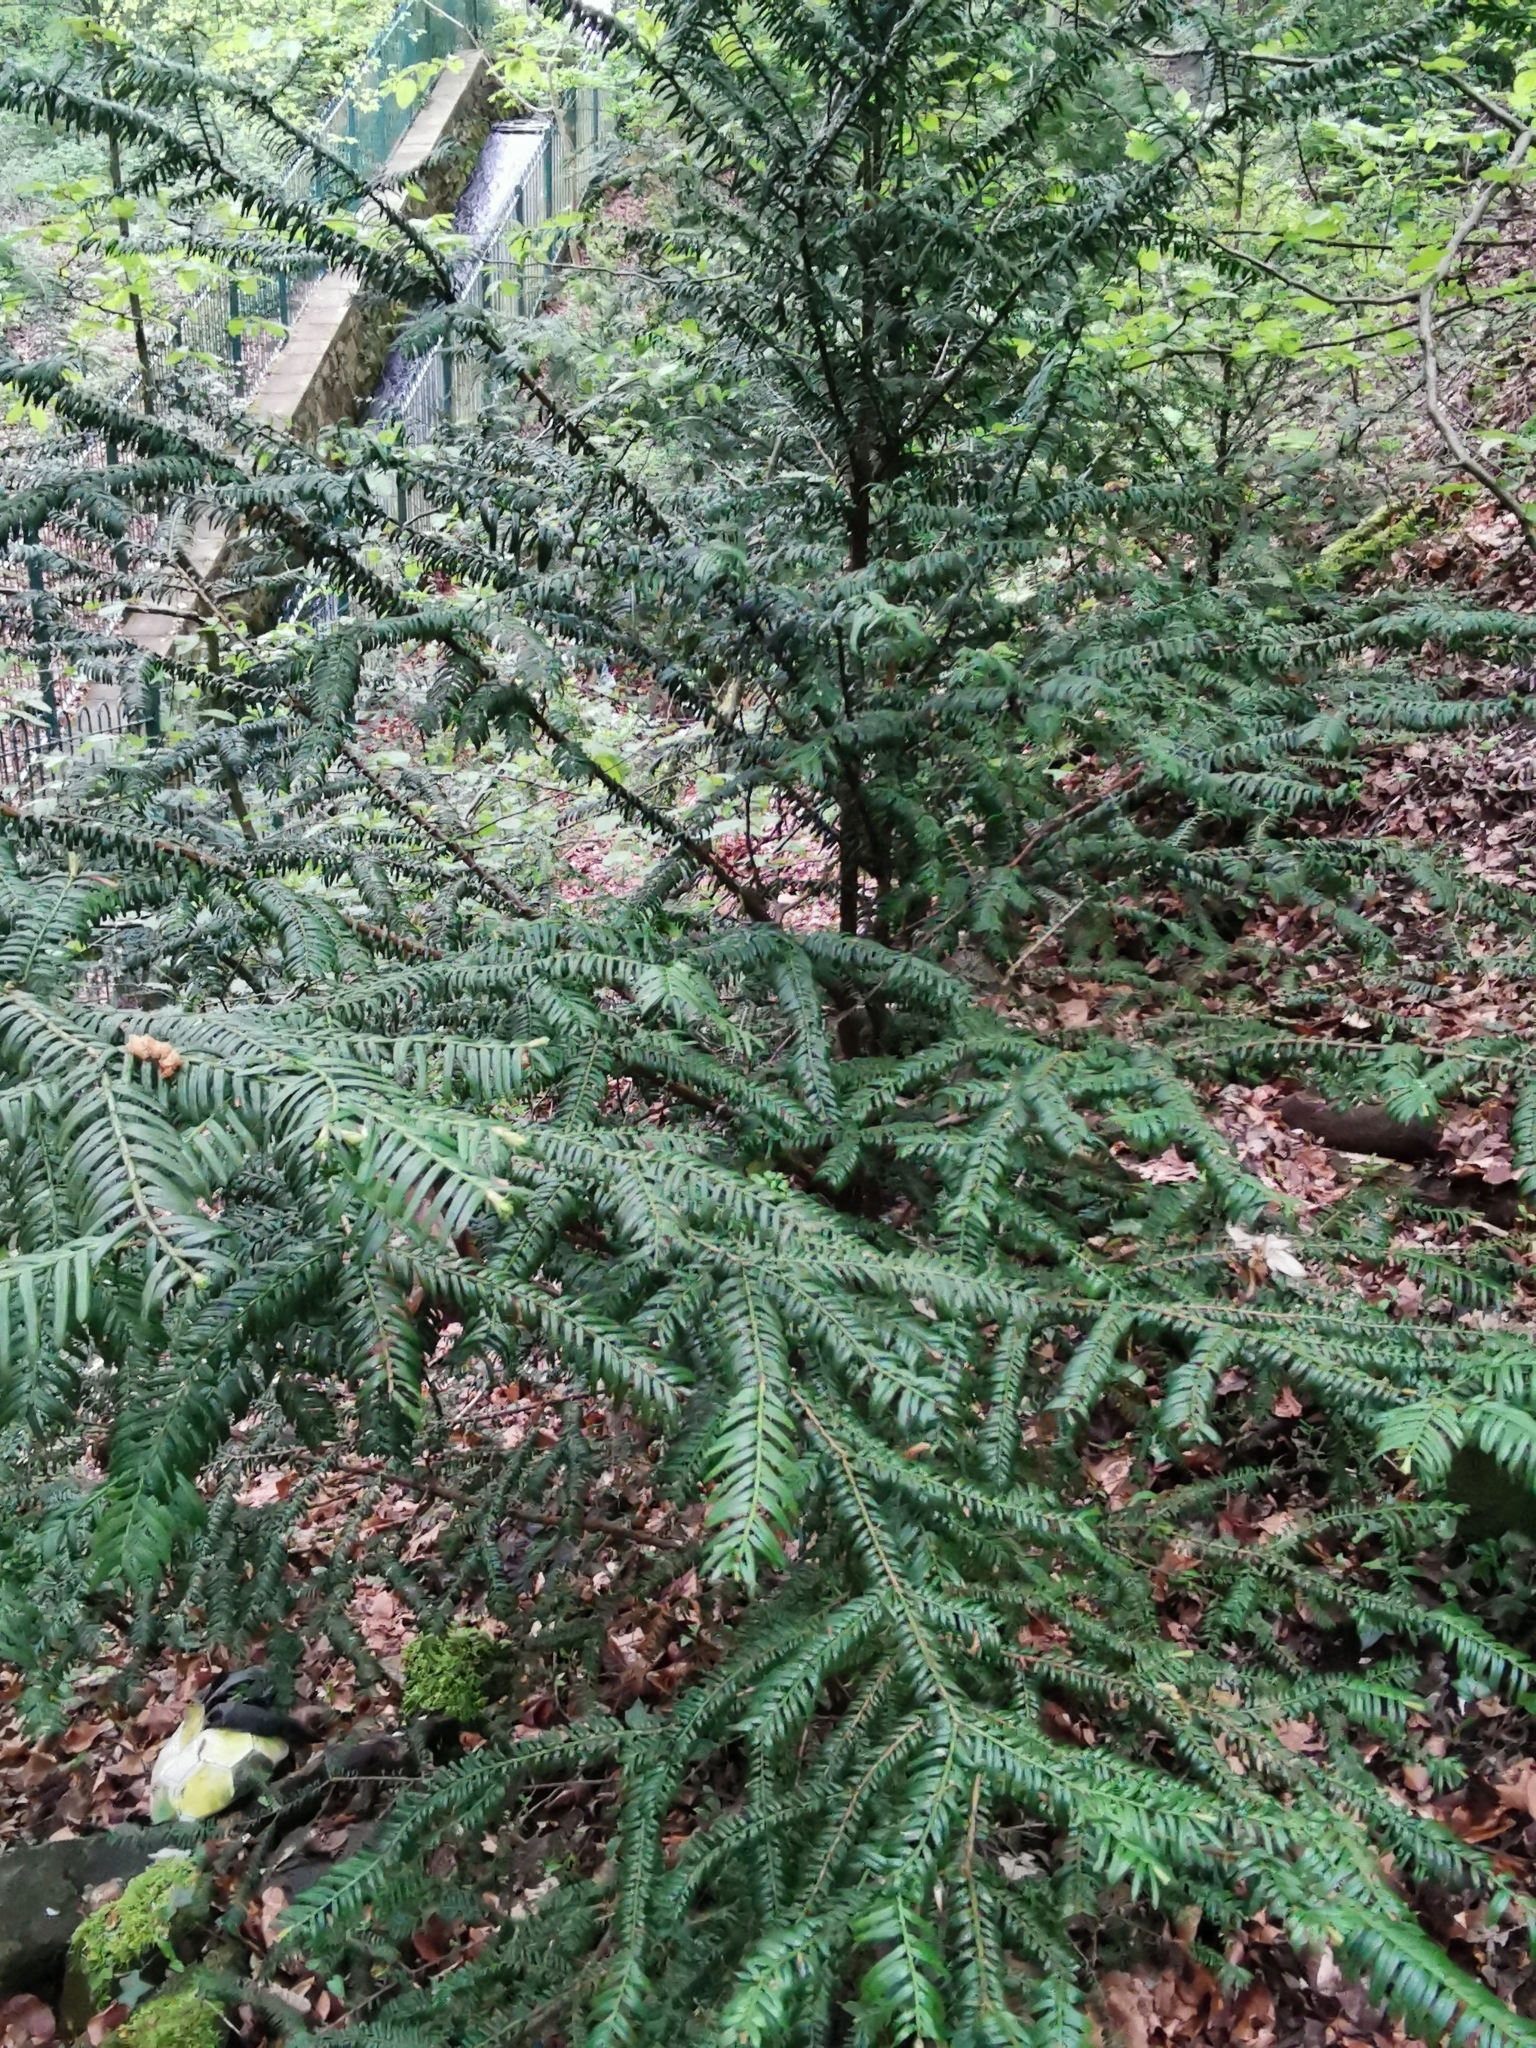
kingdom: Plantae
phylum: Tracheophyta
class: Pinopsida
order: Pinales
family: Taxaceae
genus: Taxus
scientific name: Taxus baccata
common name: Yew
